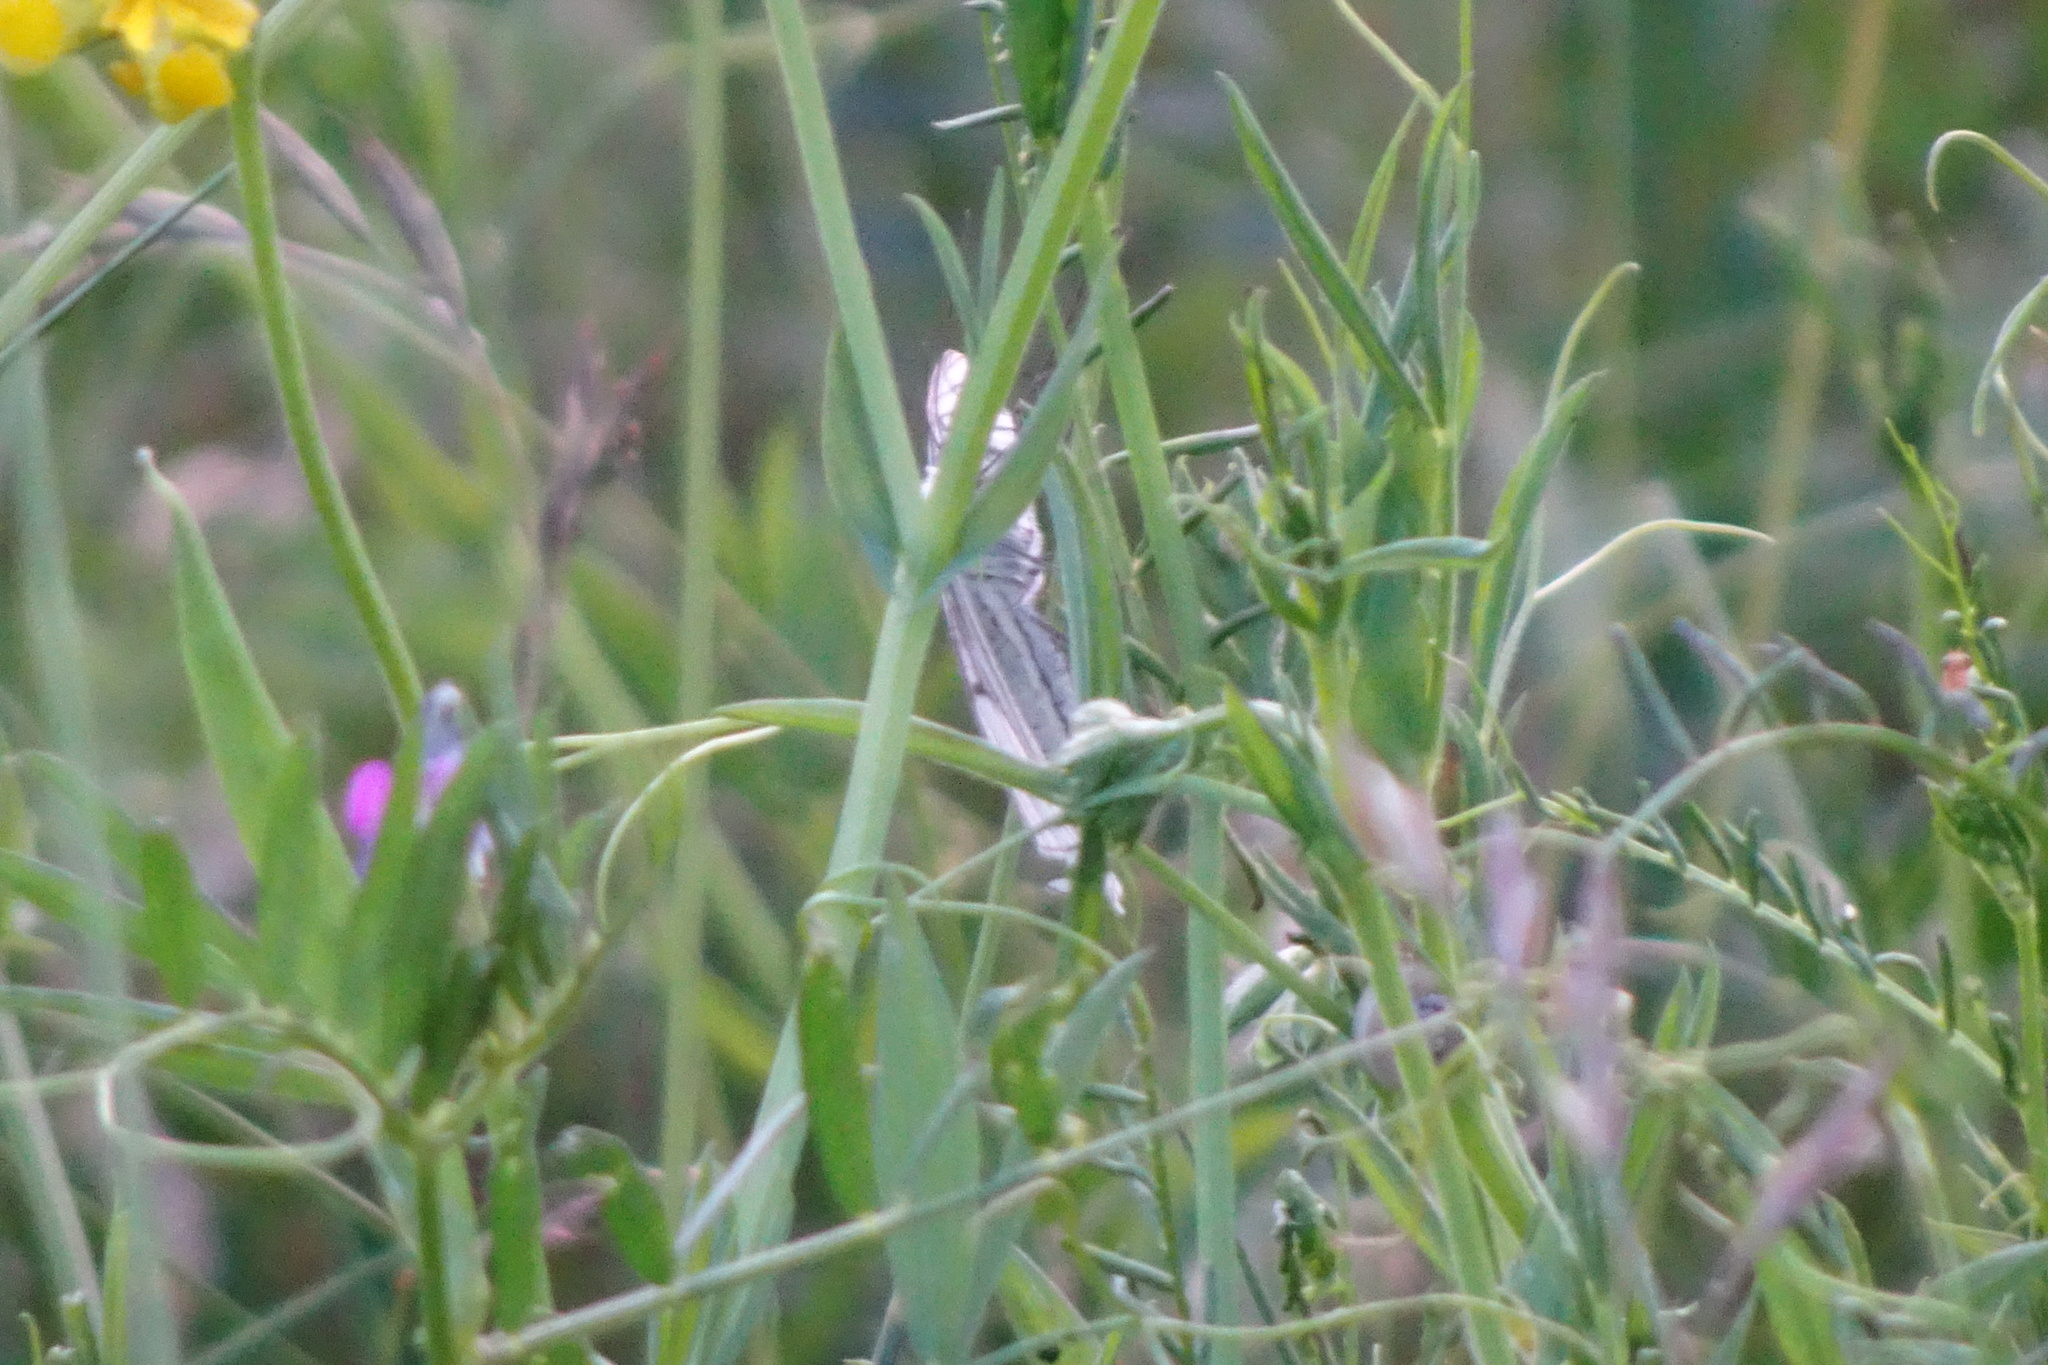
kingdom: Animalia
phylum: Arthropoda
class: Insecta
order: Lepidoptera
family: Geometridae
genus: Siona
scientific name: Siona lineata
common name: Black-veined moth
